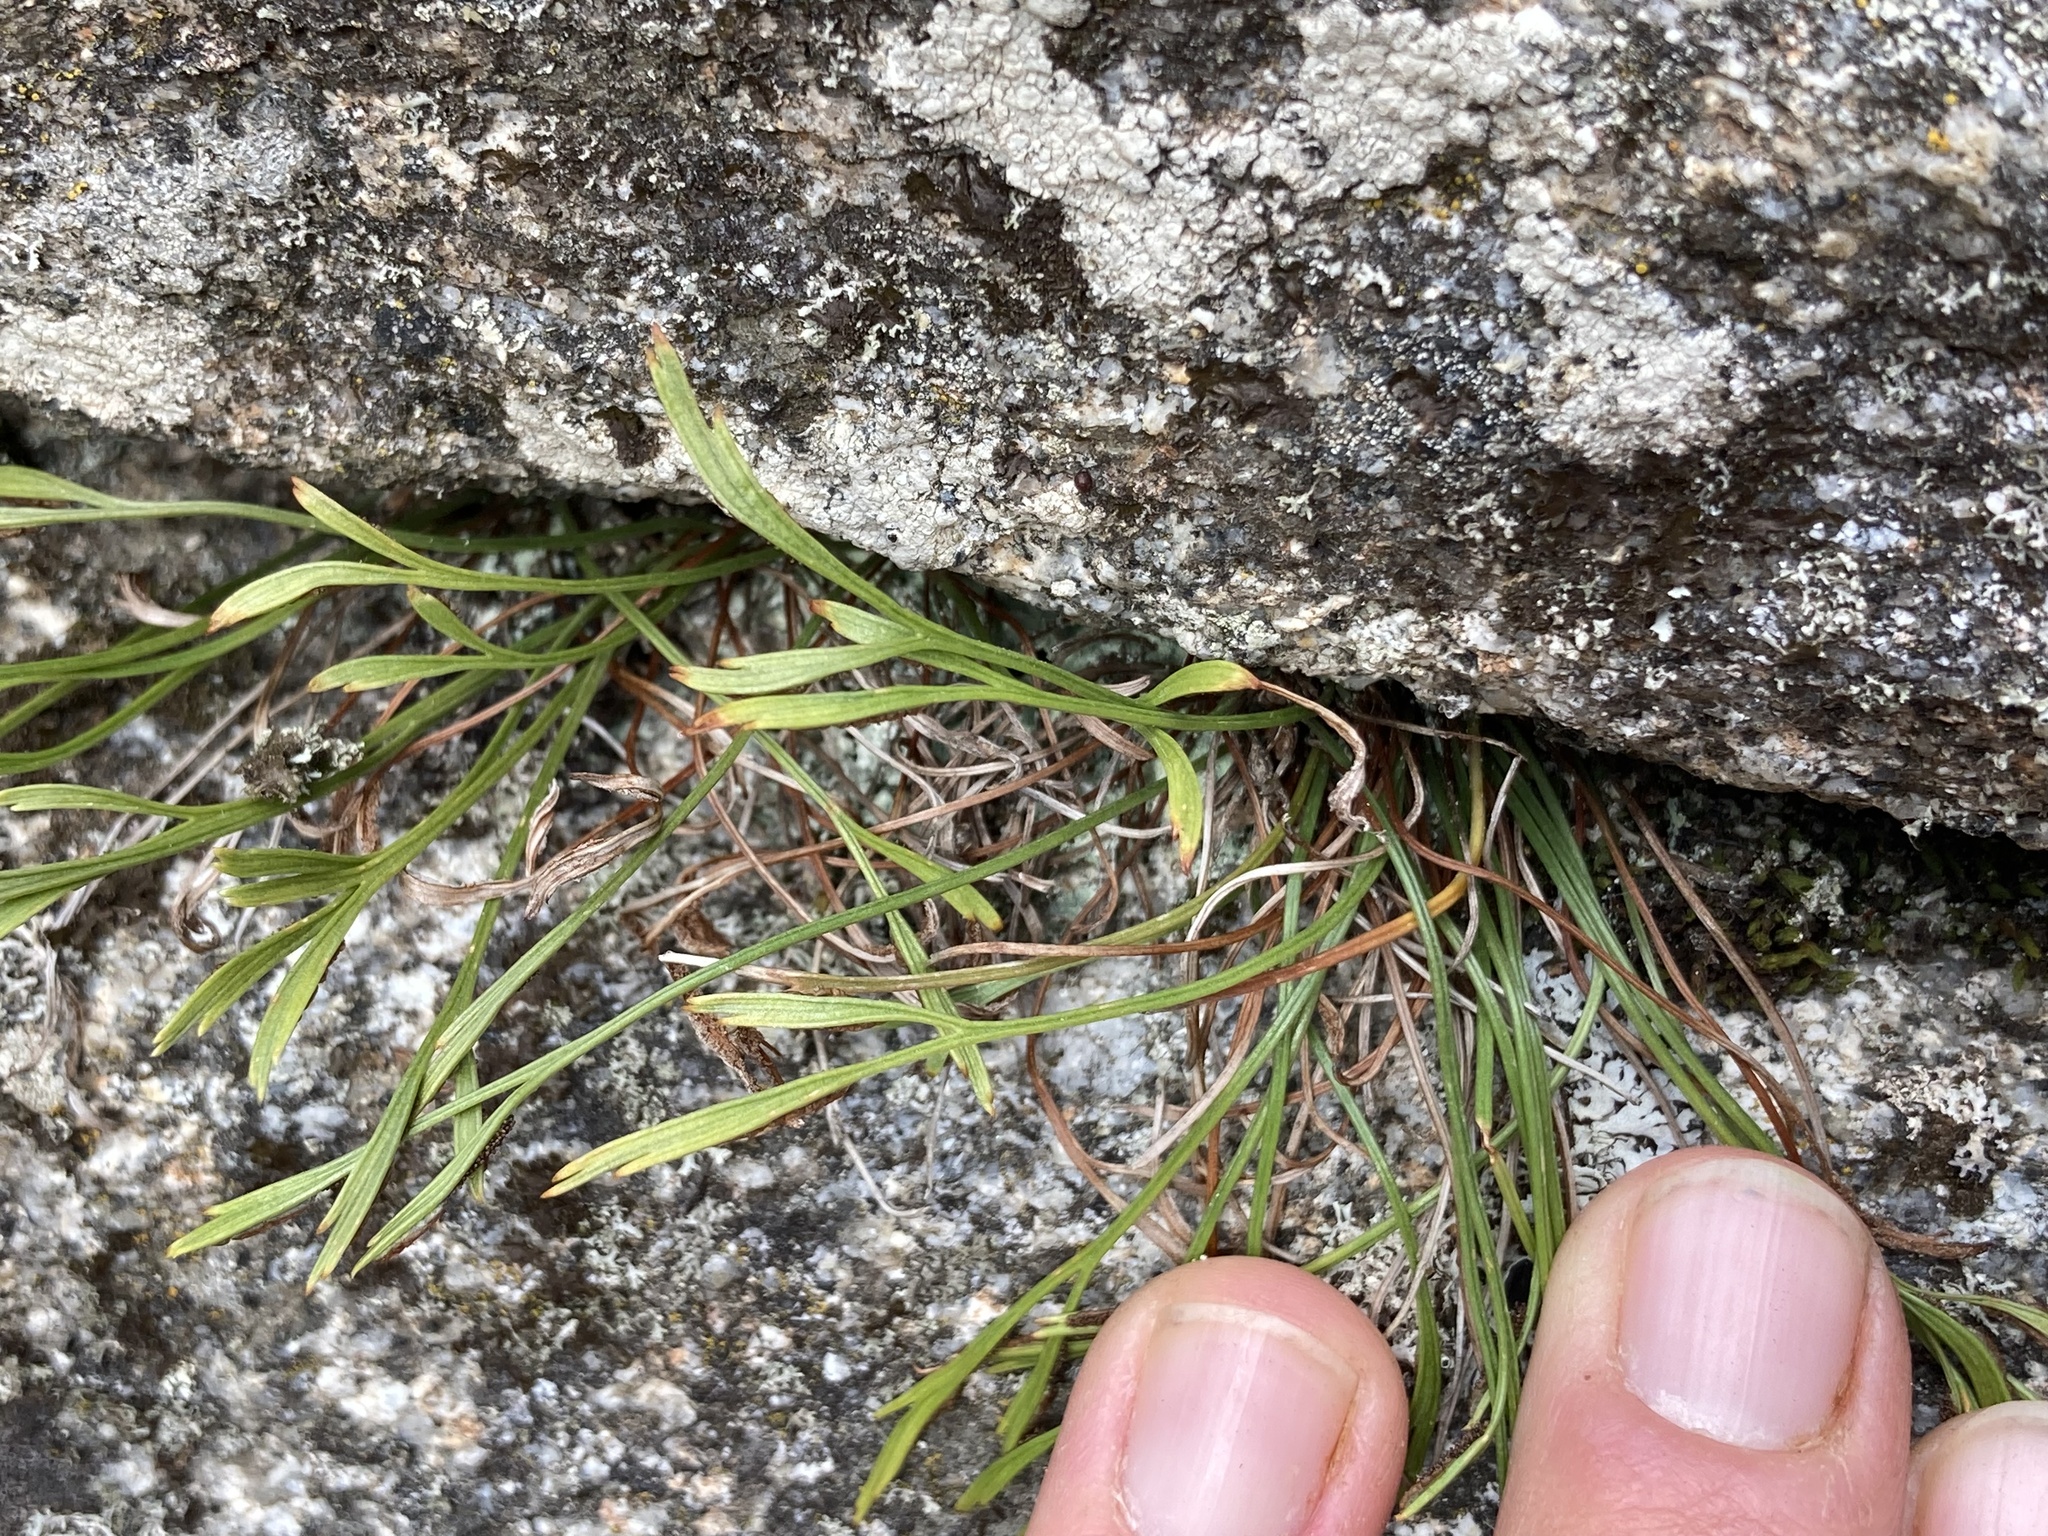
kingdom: Plantae
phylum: Tracheophyta
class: Polypodiopsida
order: Polypodiales
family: Aspleniaceae
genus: Asplenium
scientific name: Asplenium septentrionale
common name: Forked spleenwort
